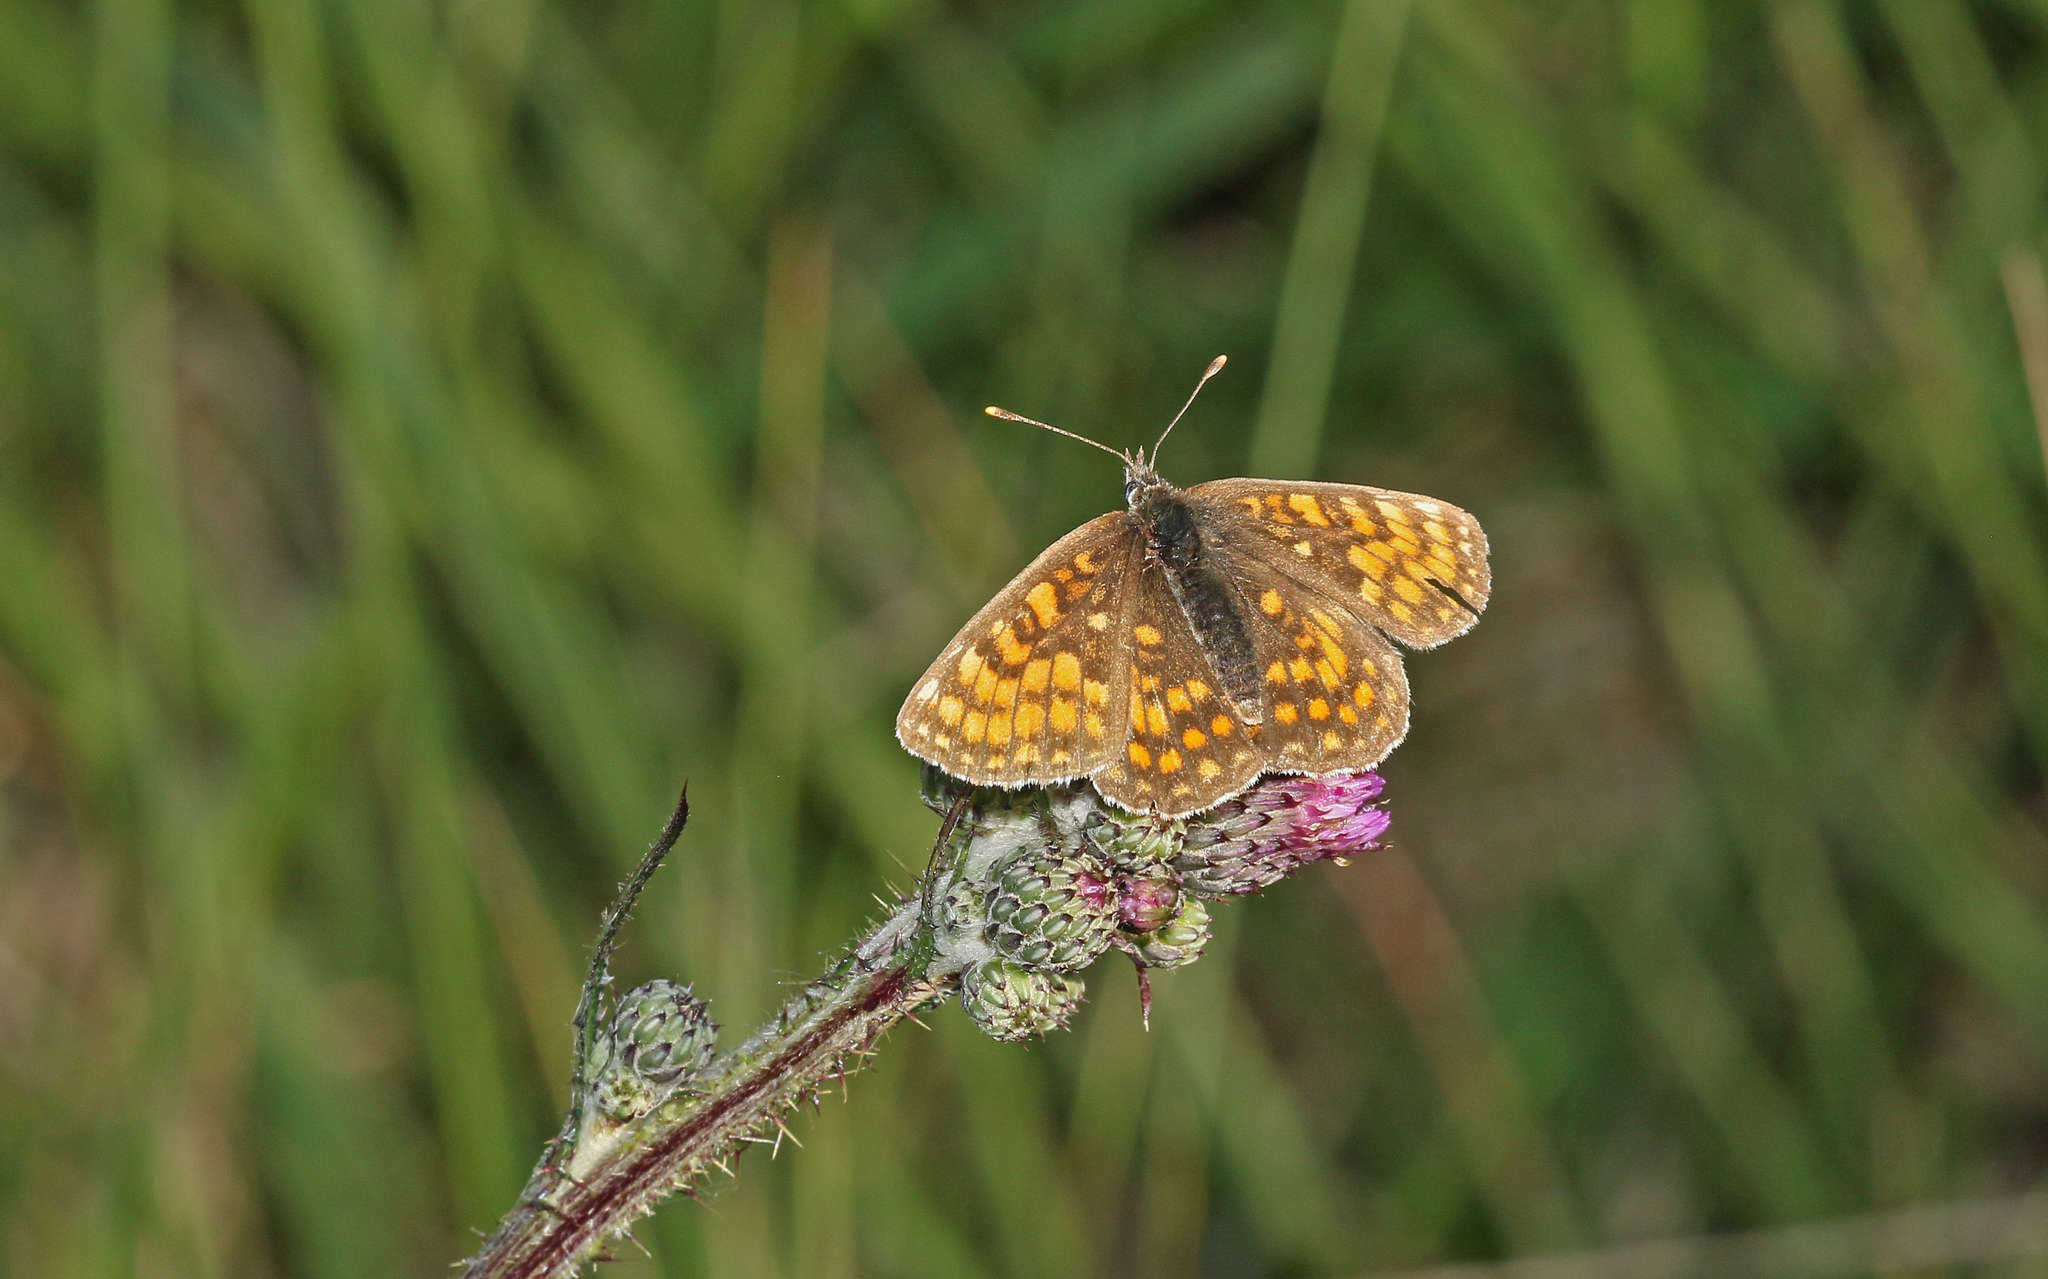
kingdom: Animalia
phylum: Arthropoda
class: Insecta
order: Lepidoptera
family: Nymphalidae
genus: Melitaea
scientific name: Melitaea athalia
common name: Heath fritillary
